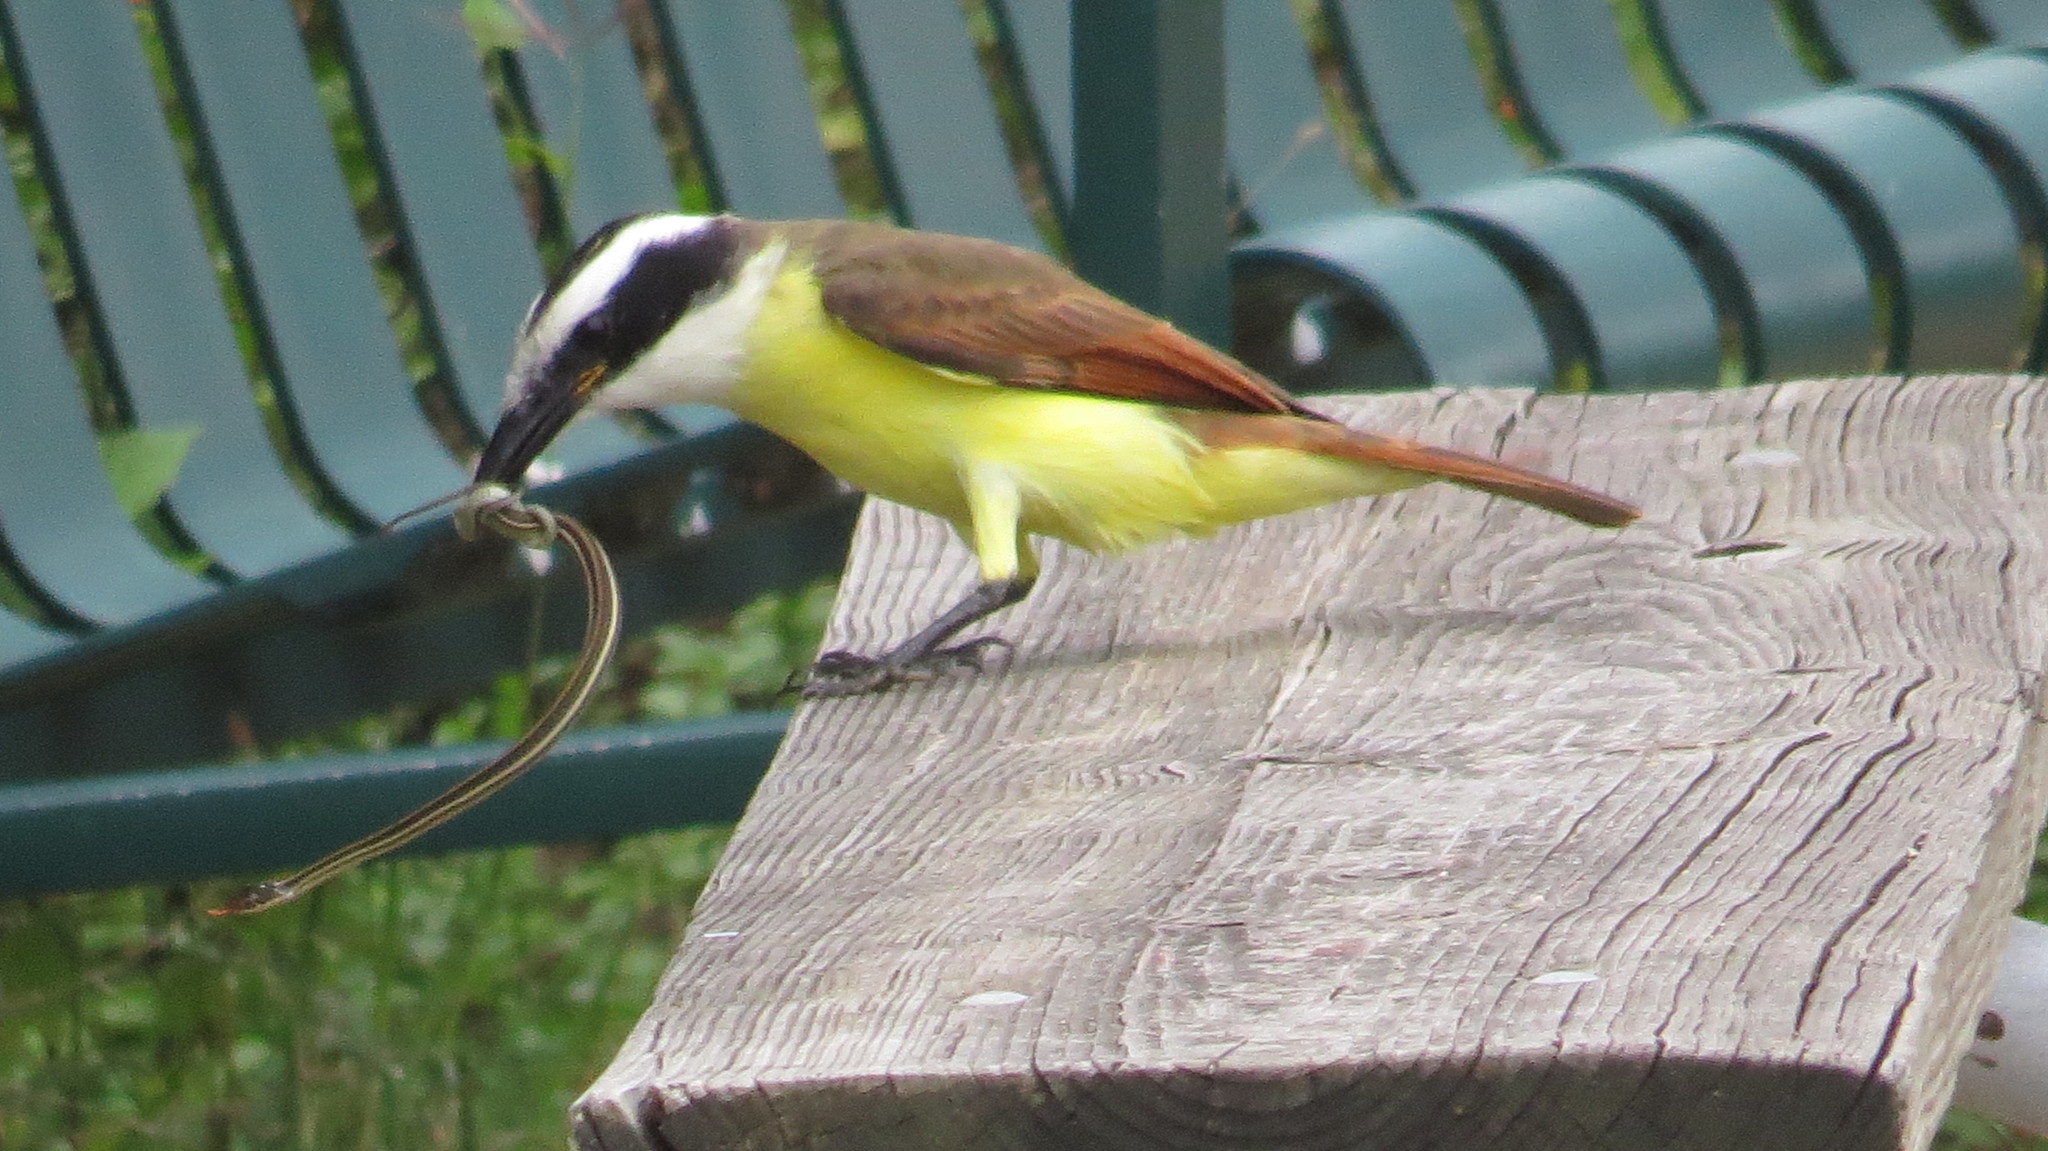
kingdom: Animalia
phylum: Chordata
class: Aves
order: Passeriformes
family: Tyrannidae
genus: Pitangus
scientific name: Pitangus sulphuratus
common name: Great kiskadee
